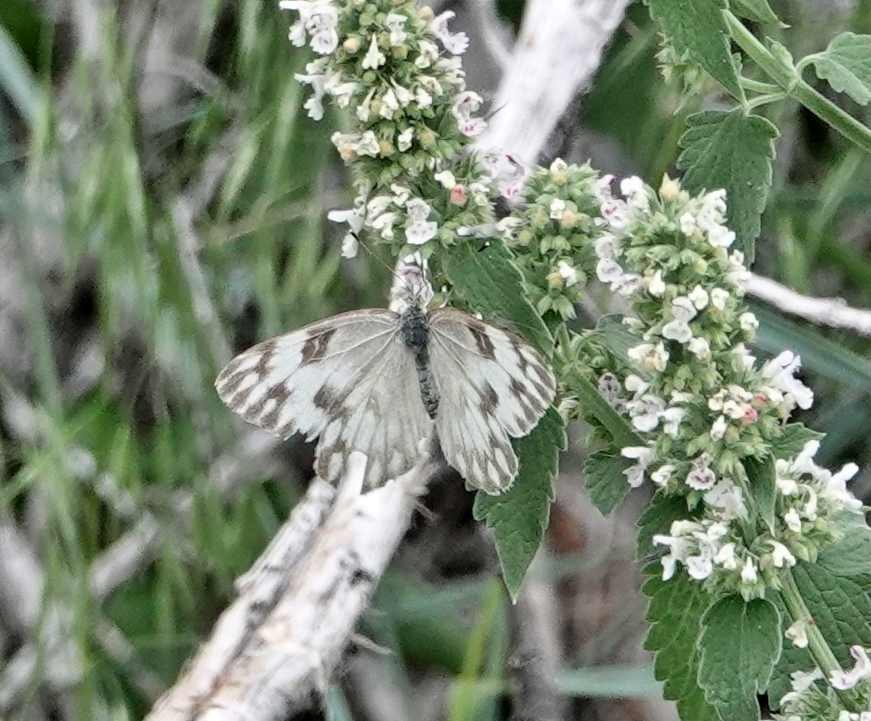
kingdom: Animalia
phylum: Arthropoda
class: Insecta
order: Lepidoptera
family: Pieridae
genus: Pontia
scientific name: Pontia protodice
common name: Checkered white
